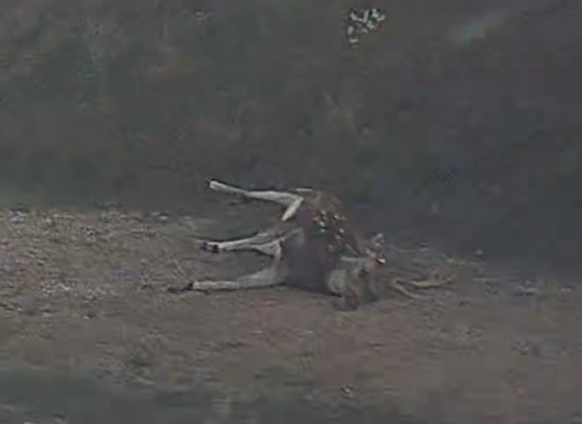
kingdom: Animalia
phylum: Chordata
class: Mammalia
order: Artiodactyla
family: Cervidae
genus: Axis
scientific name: Axis axis
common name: Chital
